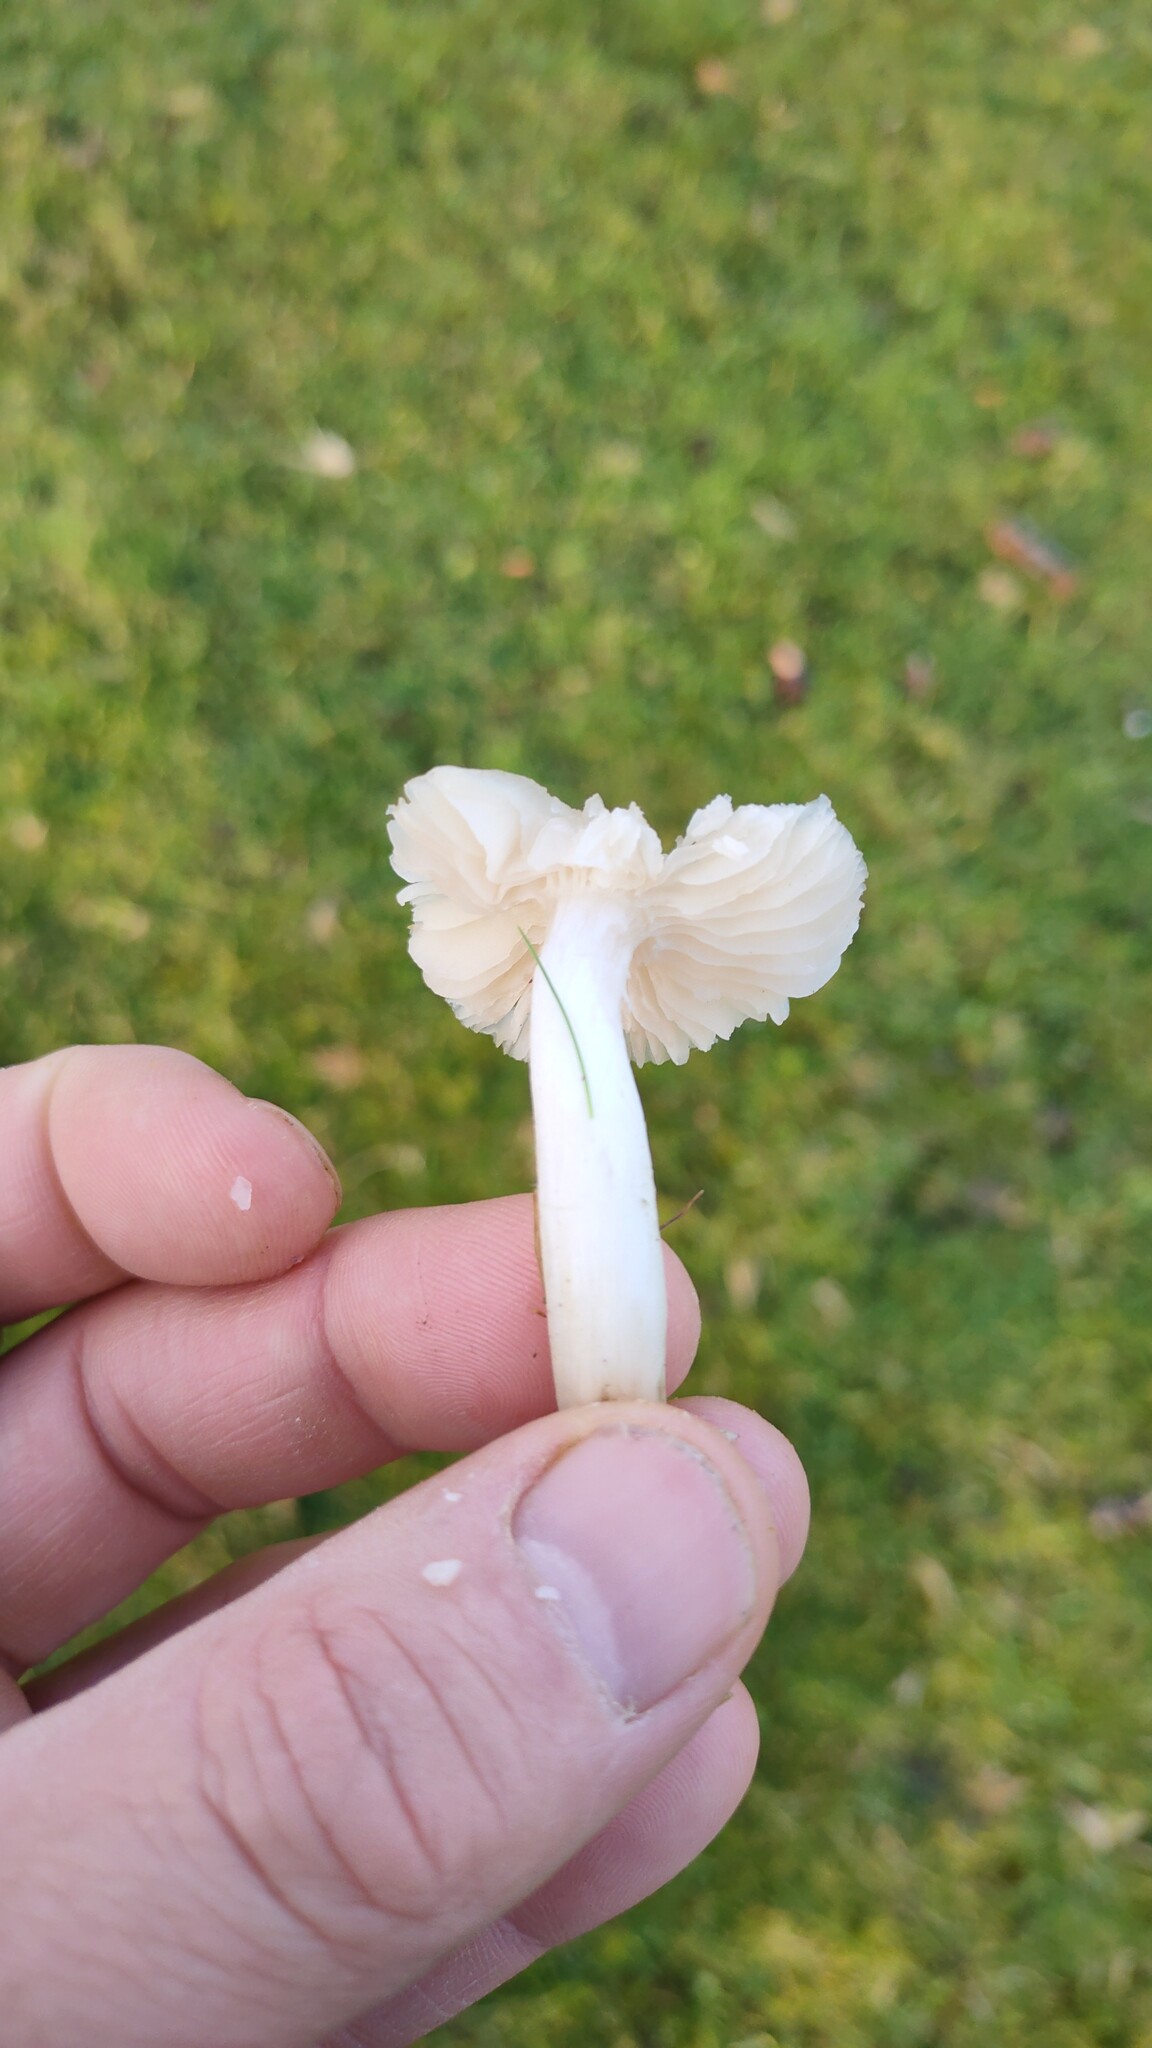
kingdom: Fungi
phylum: Basidiomycota
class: Agaricomycetes
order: Agaricales
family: Hygrophoraceae
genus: Cuphophyllus
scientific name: Cuphophyllus fornicatus
